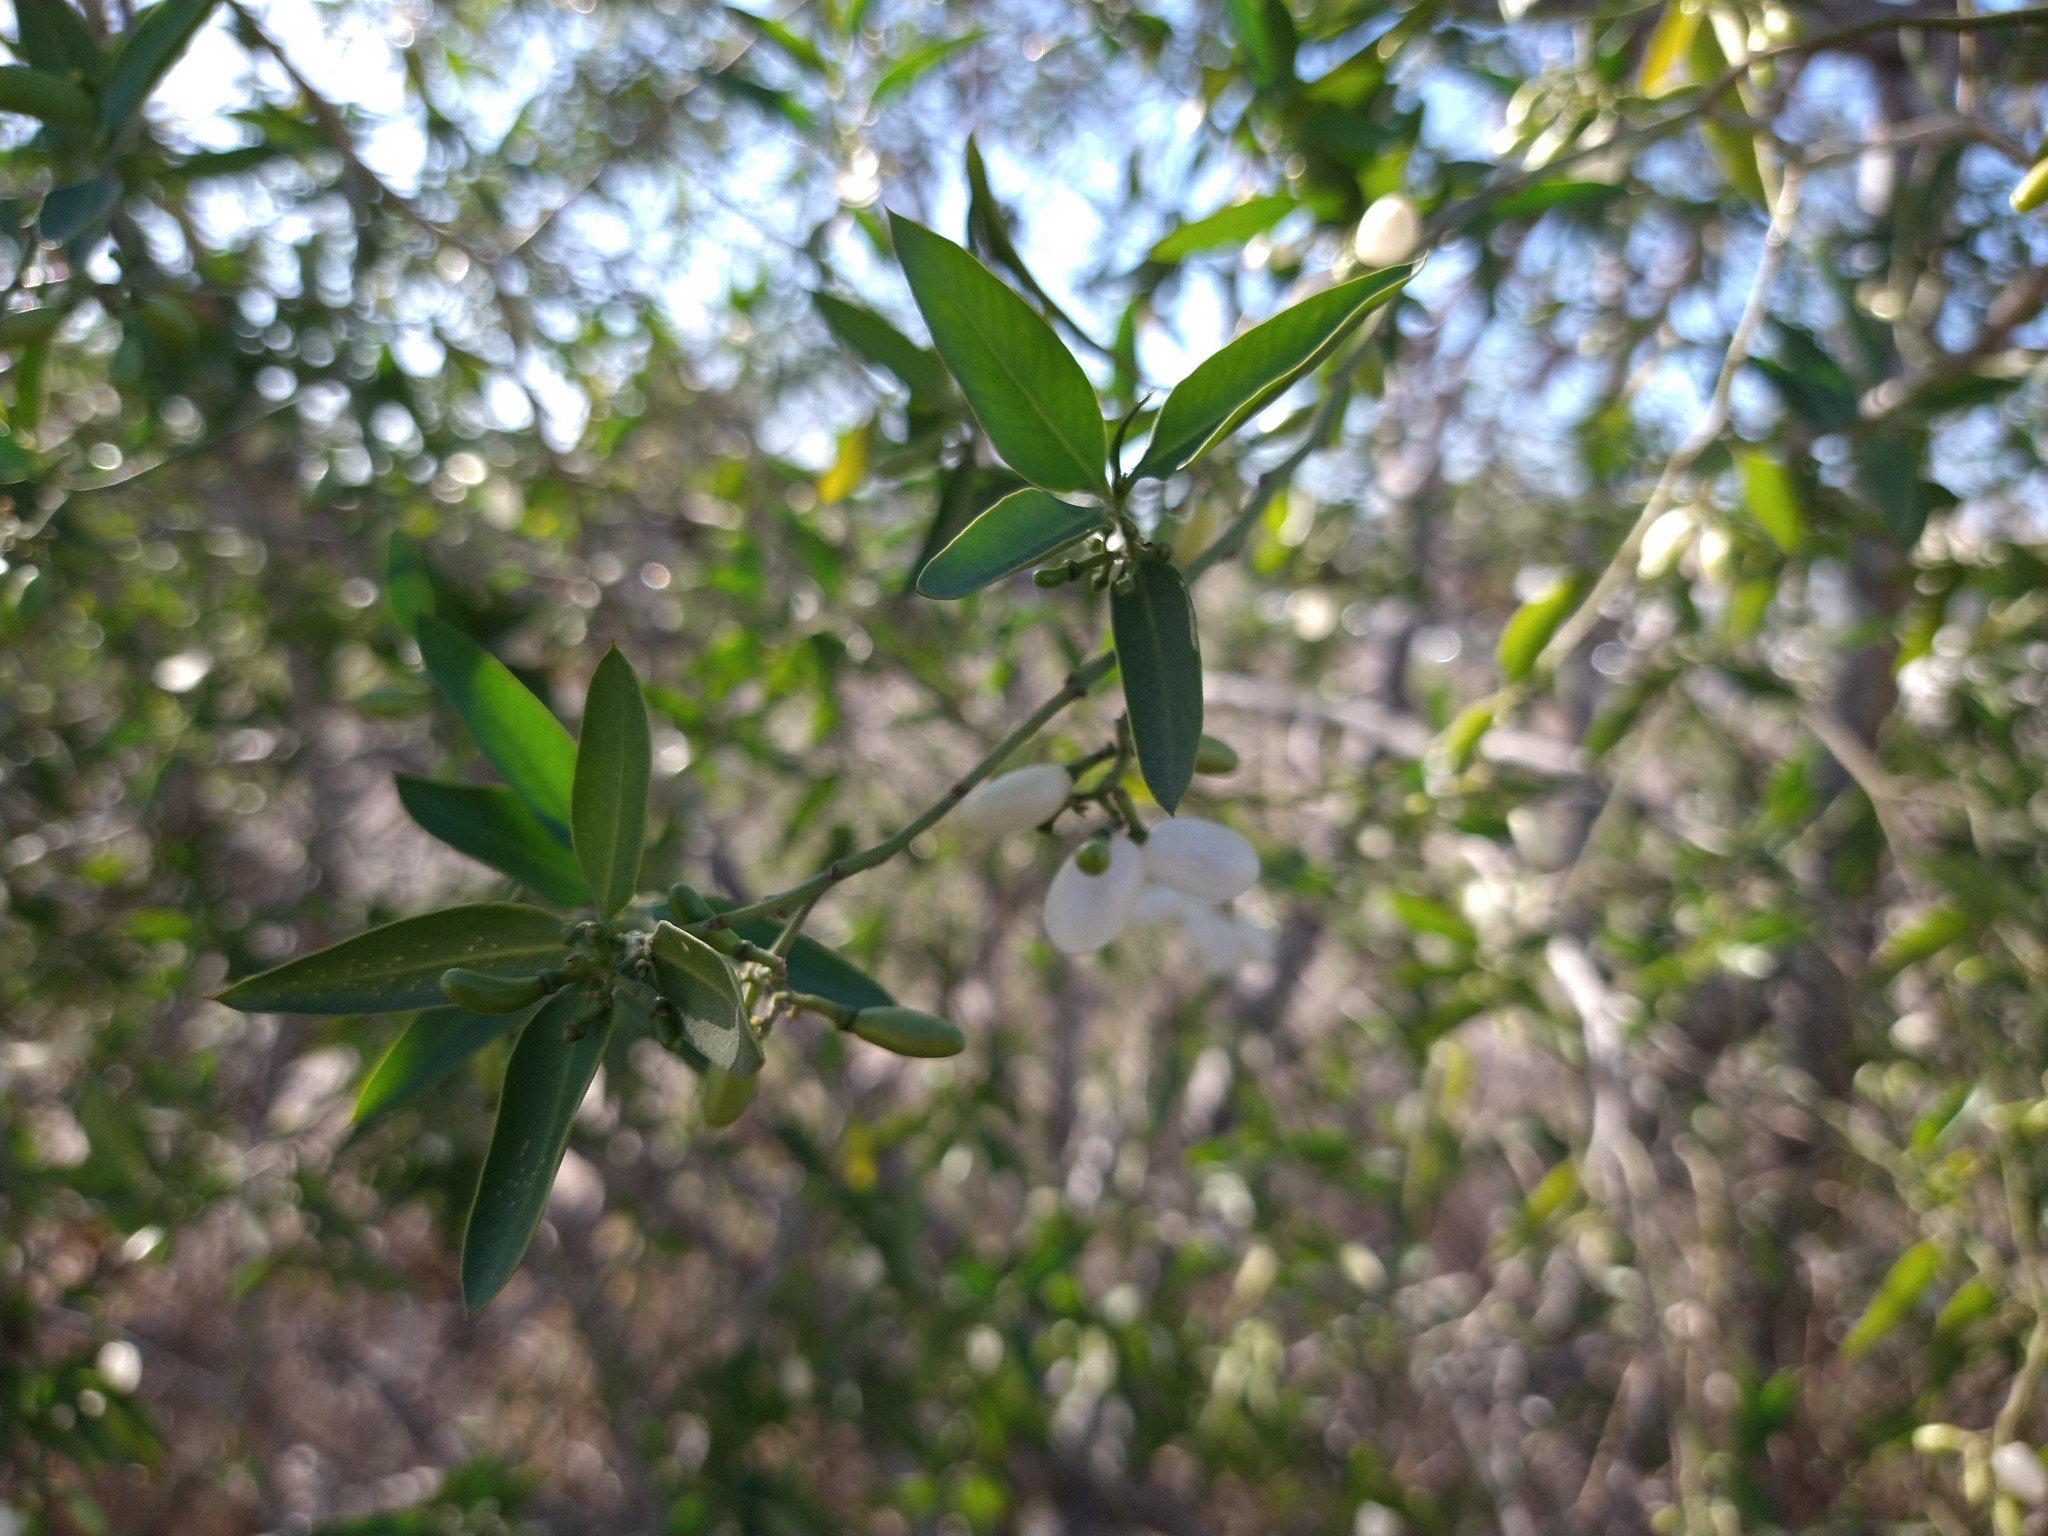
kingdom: Plantae
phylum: Tracheophyta
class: Magnoliopsida
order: Gentianales
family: Apocynaceae
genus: Vallesia
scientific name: Vallesia glabra
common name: Pearlberry
